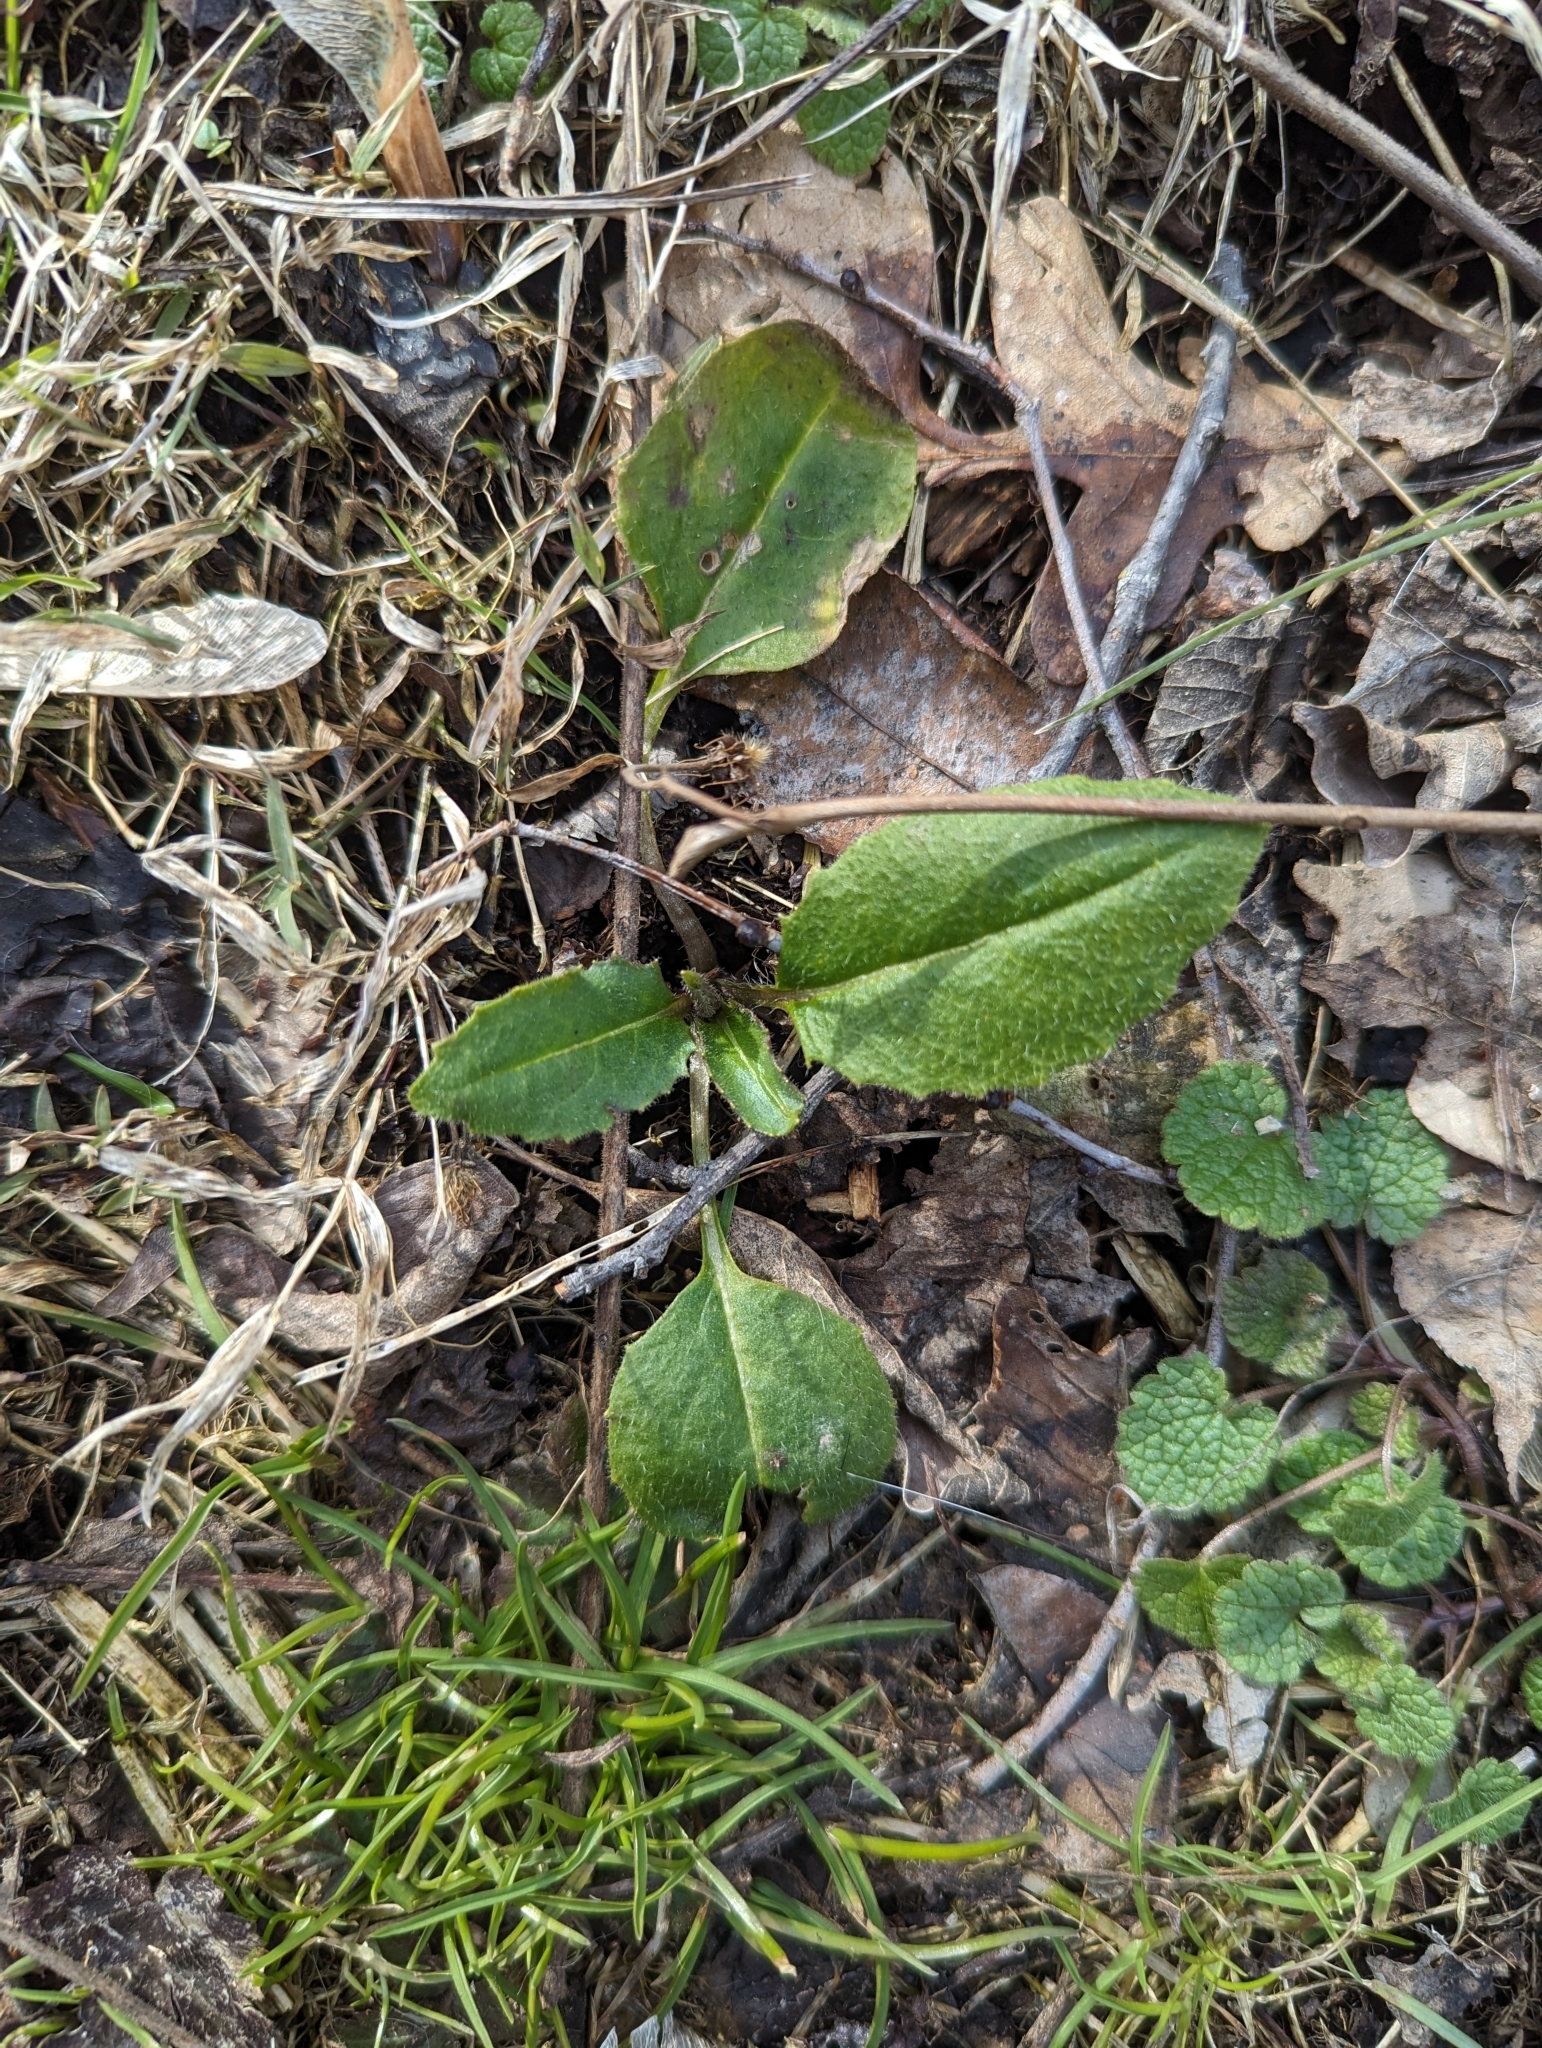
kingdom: Plantae
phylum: Tracheophyta
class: Magnoliopsida
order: Brassicales
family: Brassicaceae
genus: Hesperis
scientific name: Hesperis matronalis
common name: Dame's-violet
